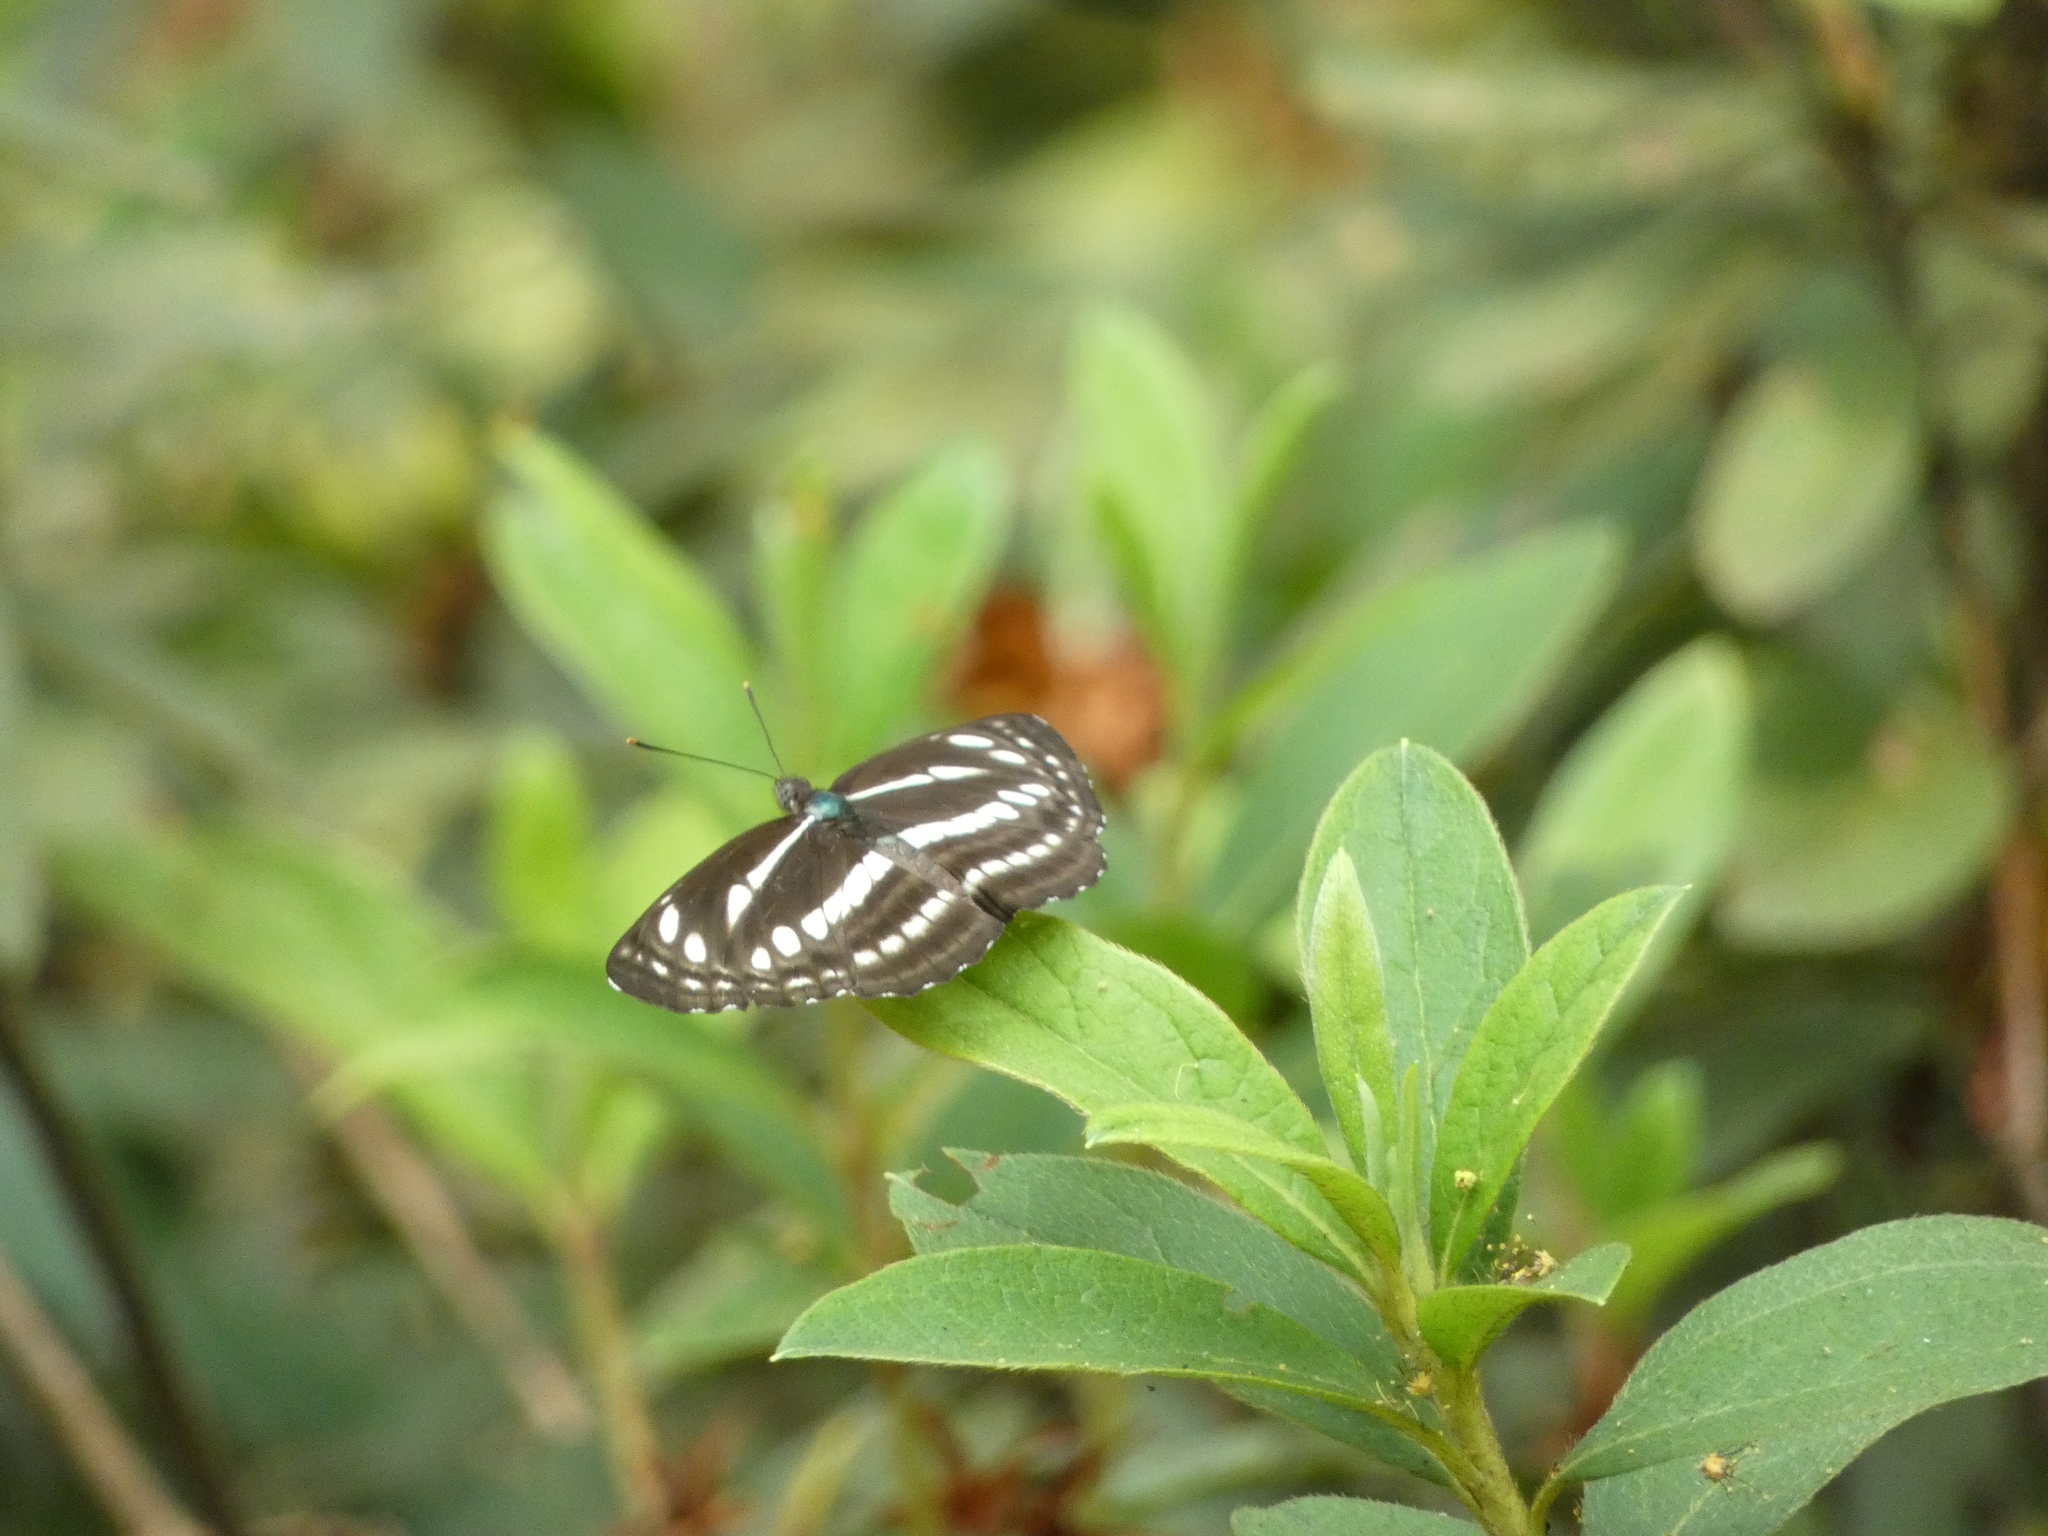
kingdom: Animalia
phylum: Arthropoda
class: Insecta
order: Lepidoptera
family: Nymphalidae
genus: Neptis
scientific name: Neptis hylas
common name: Common sailer
